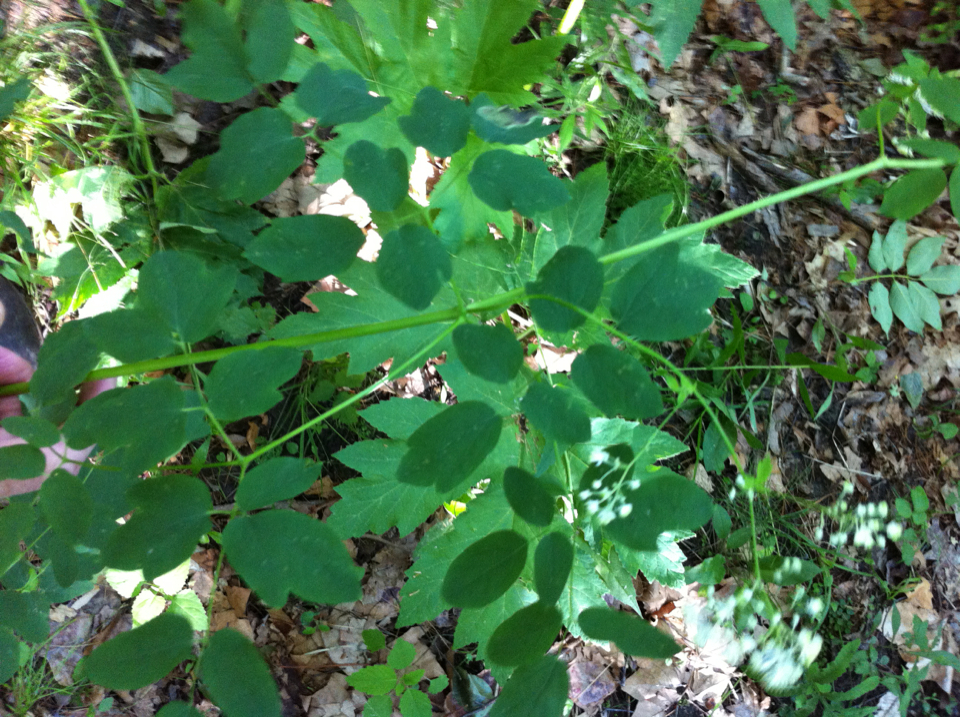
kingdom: Plantae
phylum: Tracheophyta
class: Magnoliopsida
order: Ranunculales
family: Ranunculaceae
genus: Thalictrum
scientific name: Thalictrum pubescens
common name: King-of-the-meadow
